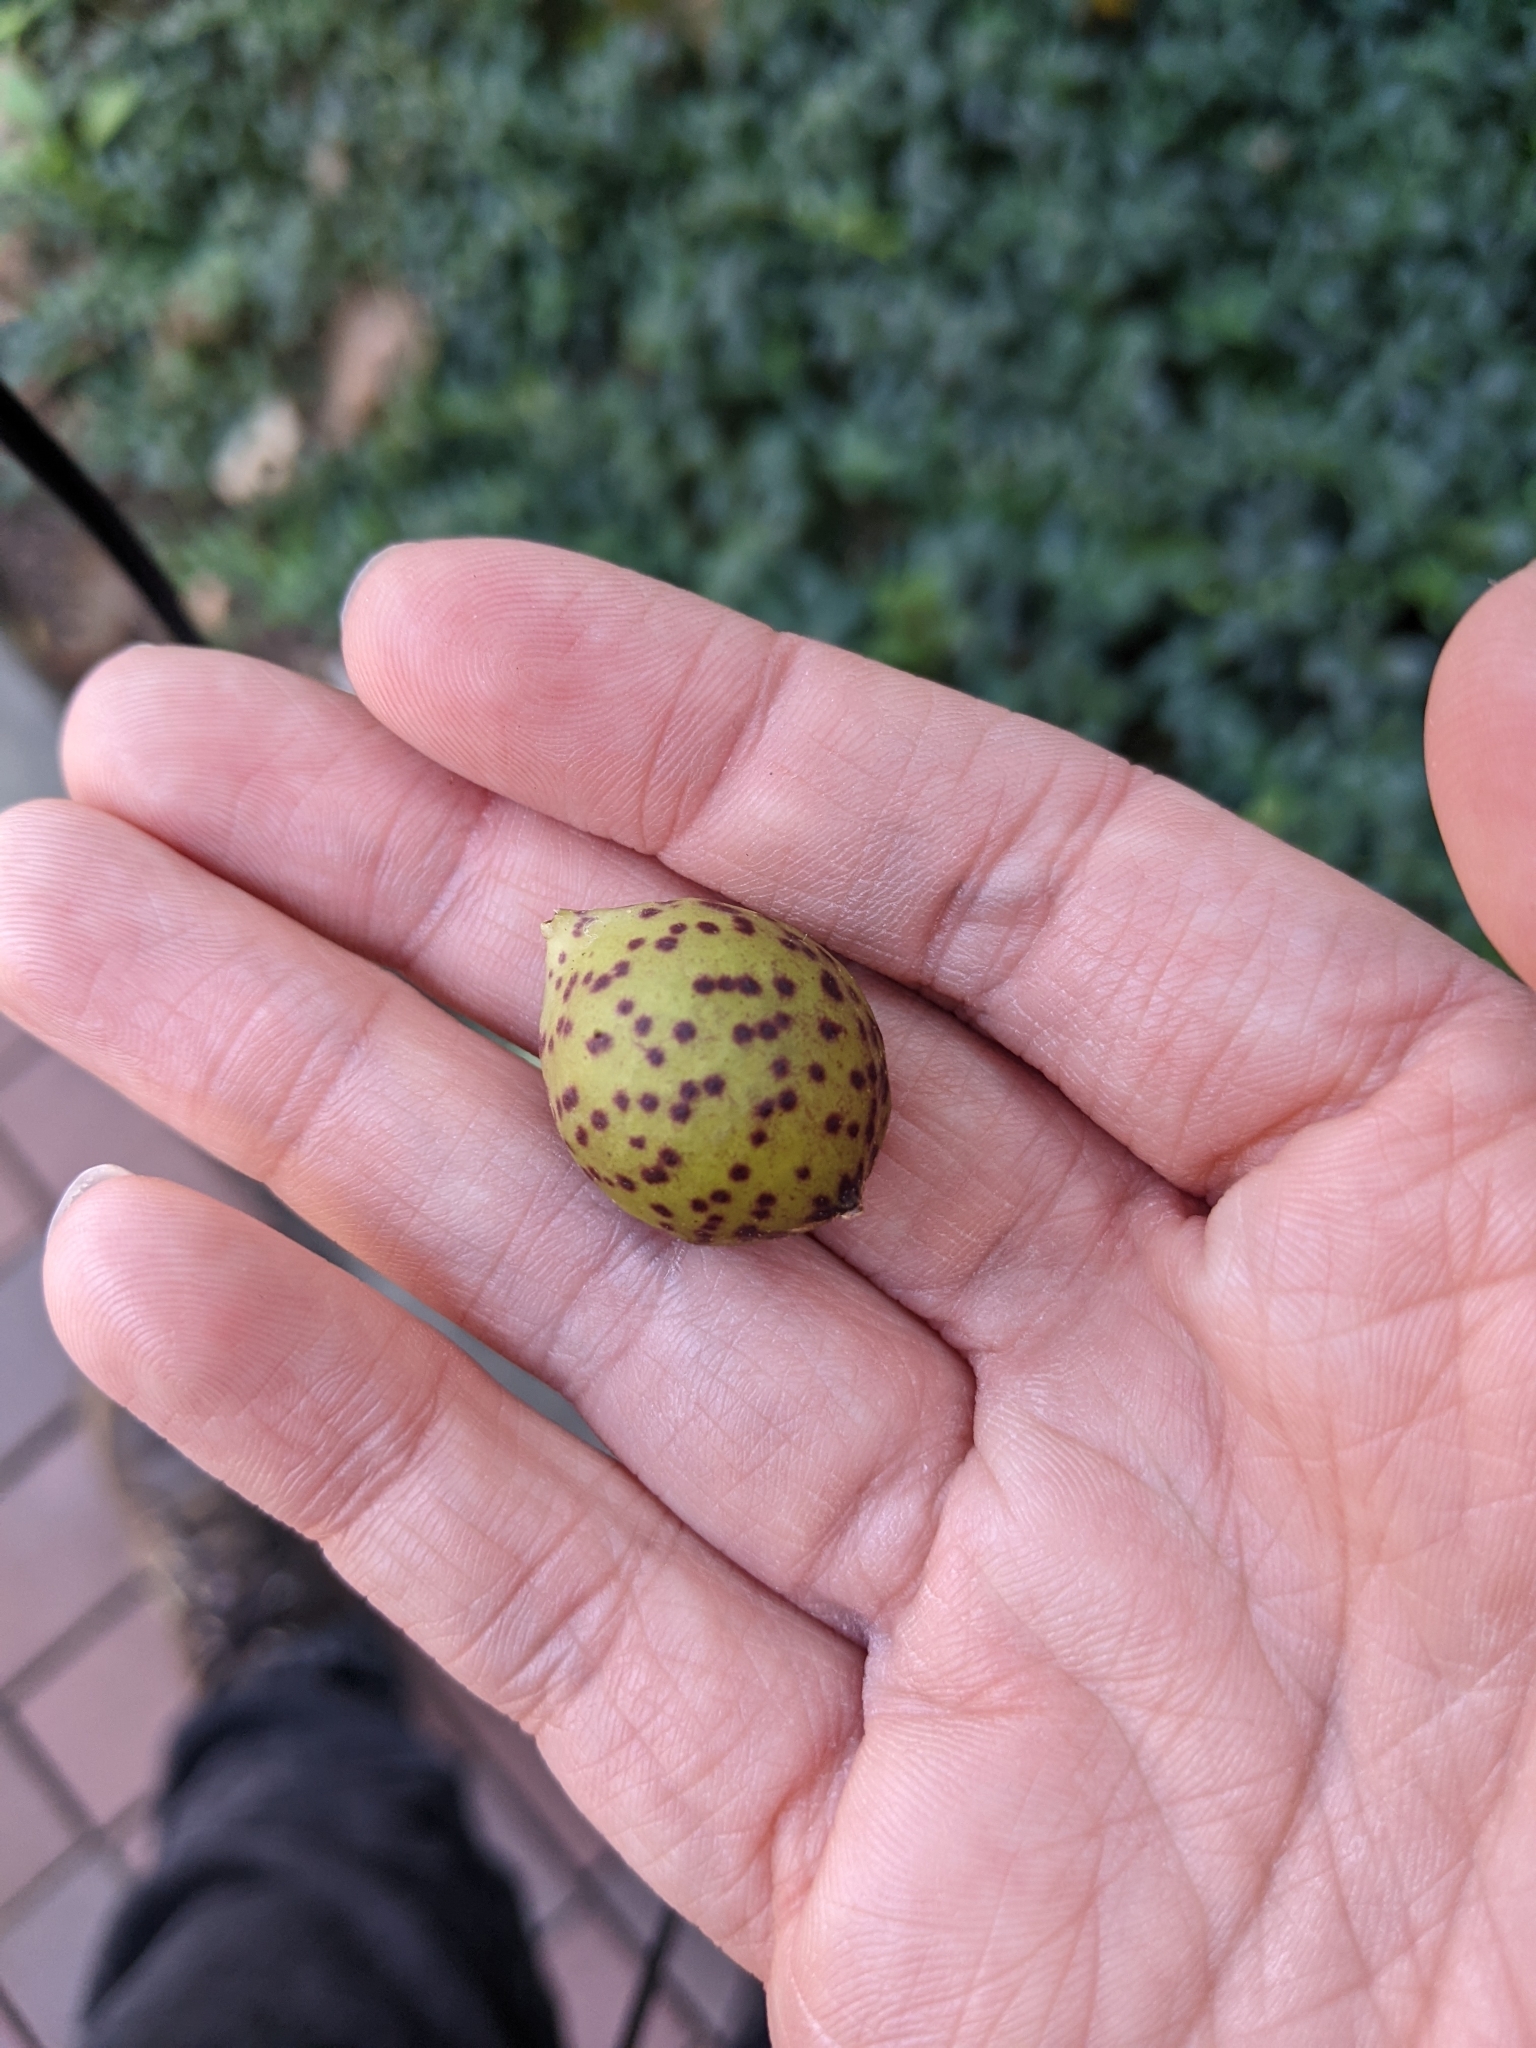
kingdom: Animalia
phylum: Arthropoda
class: Insecta
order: Hymenoptera
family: Cynipidae
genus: Amphibolips
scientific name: Amphibolips
